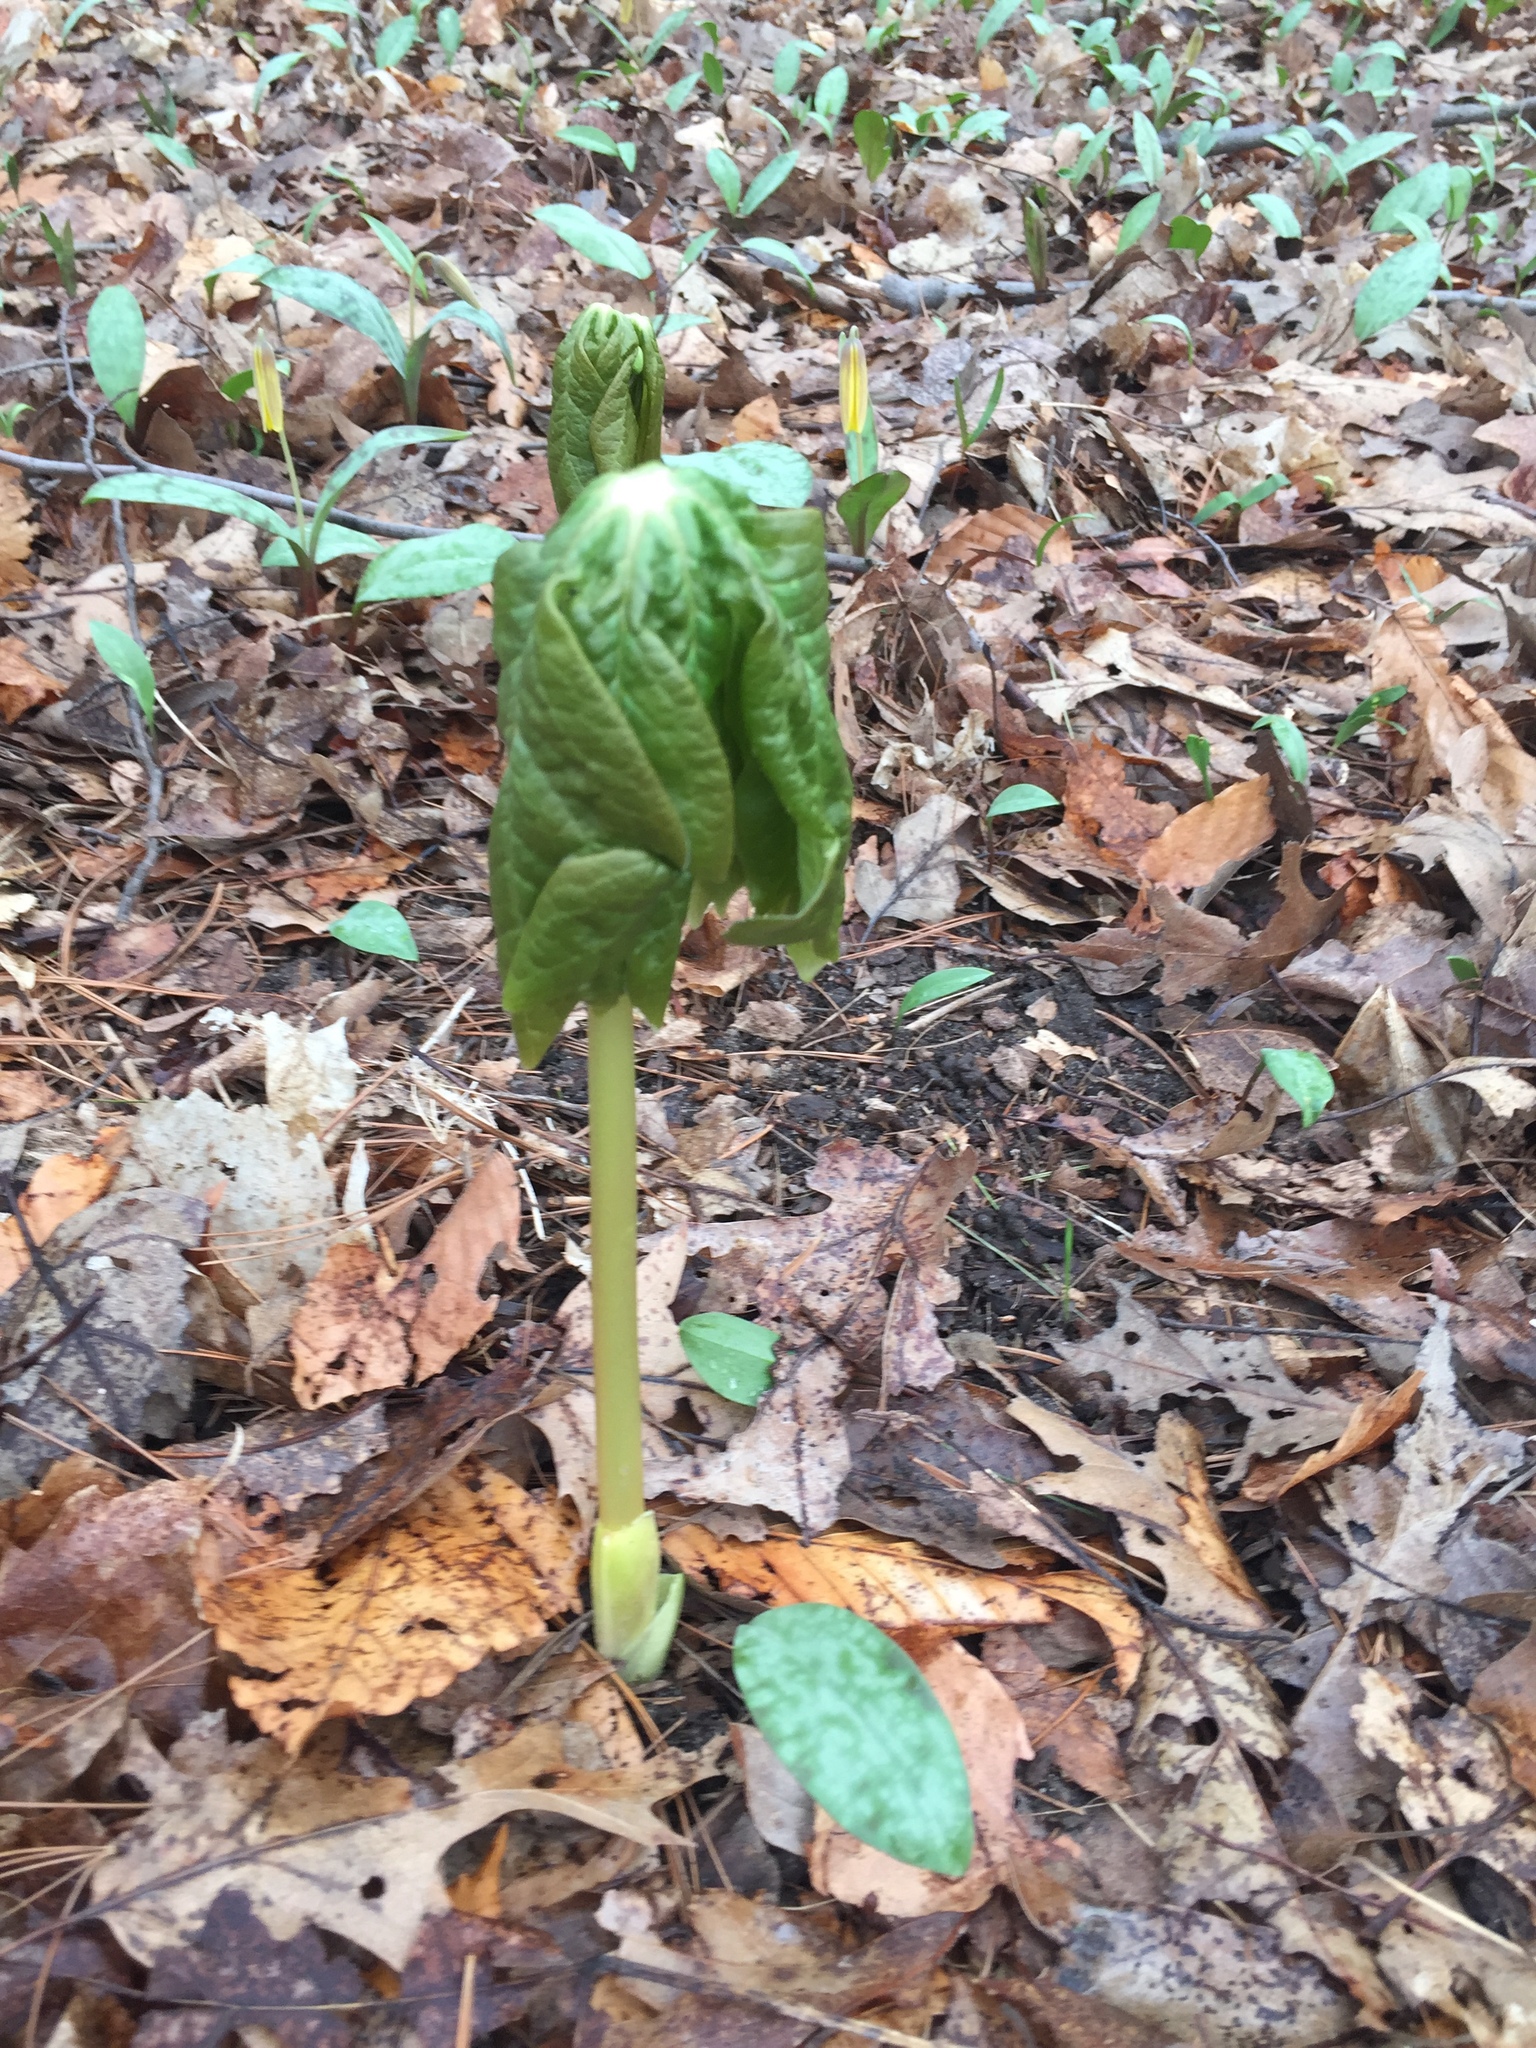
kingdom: Plantae
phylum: Tracheophyta
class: Magnoliopsida
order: Ranunculales
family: Berberidaceae
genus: Podophyllum
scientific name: Podophyllum peltatum
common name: Wild mandrake
